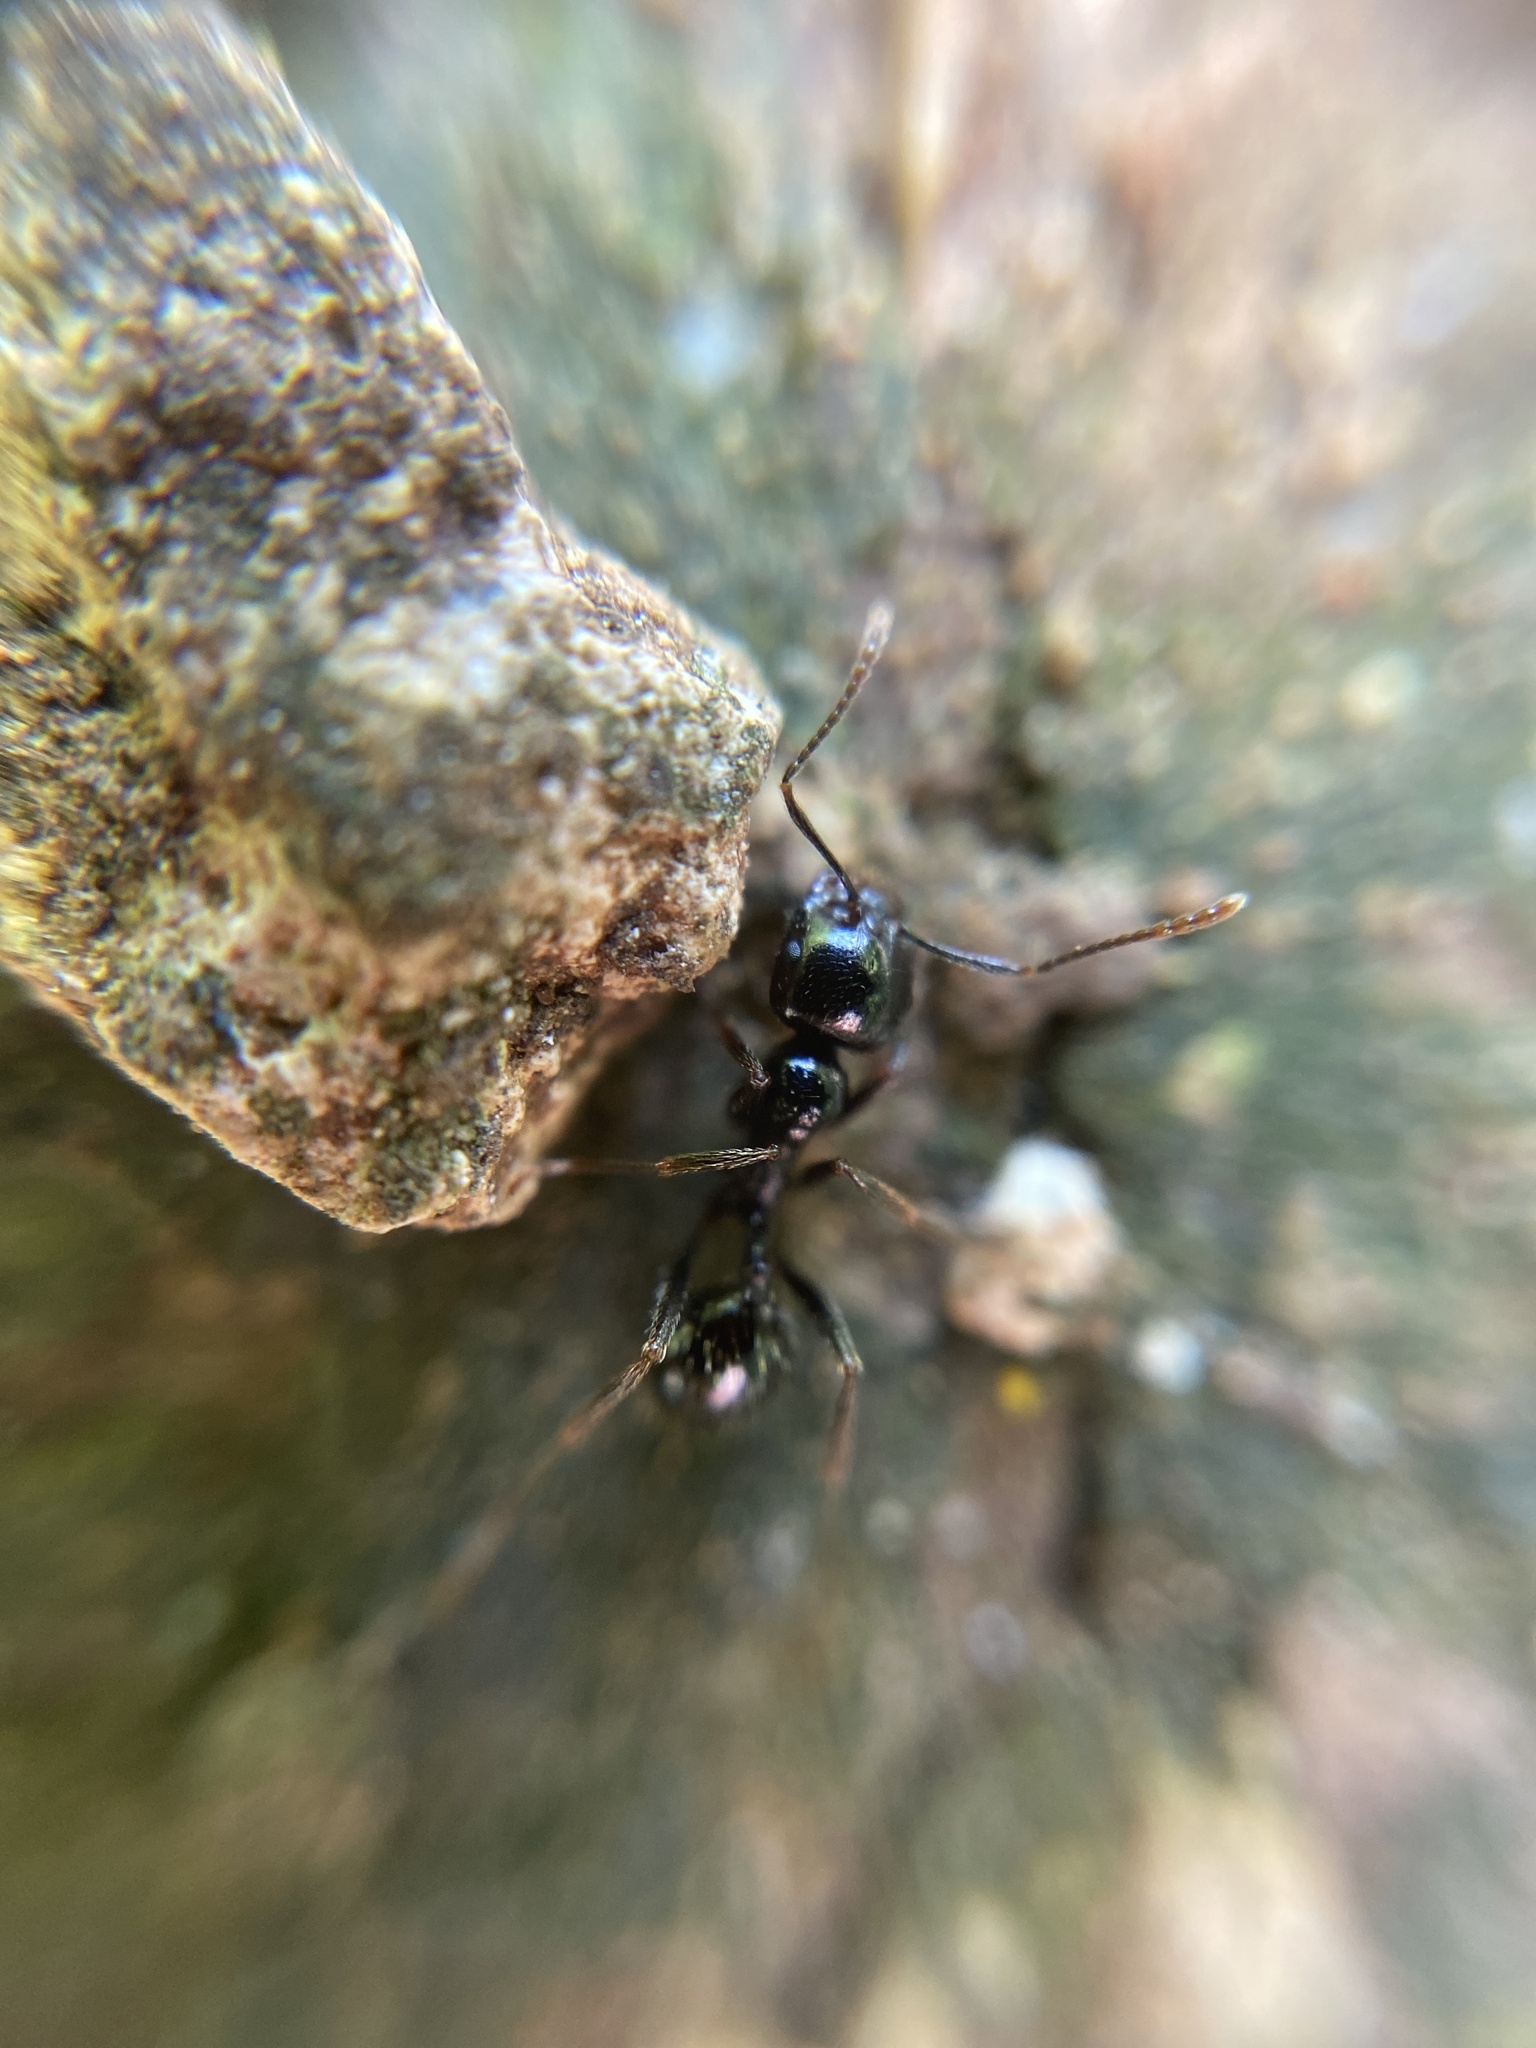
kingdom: Animalia
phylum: Arthropoda
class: Insecta
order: Hymenoptera
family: Formicidae
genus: Messor
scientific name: Messor capitatus
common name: European seed harvesting ant
